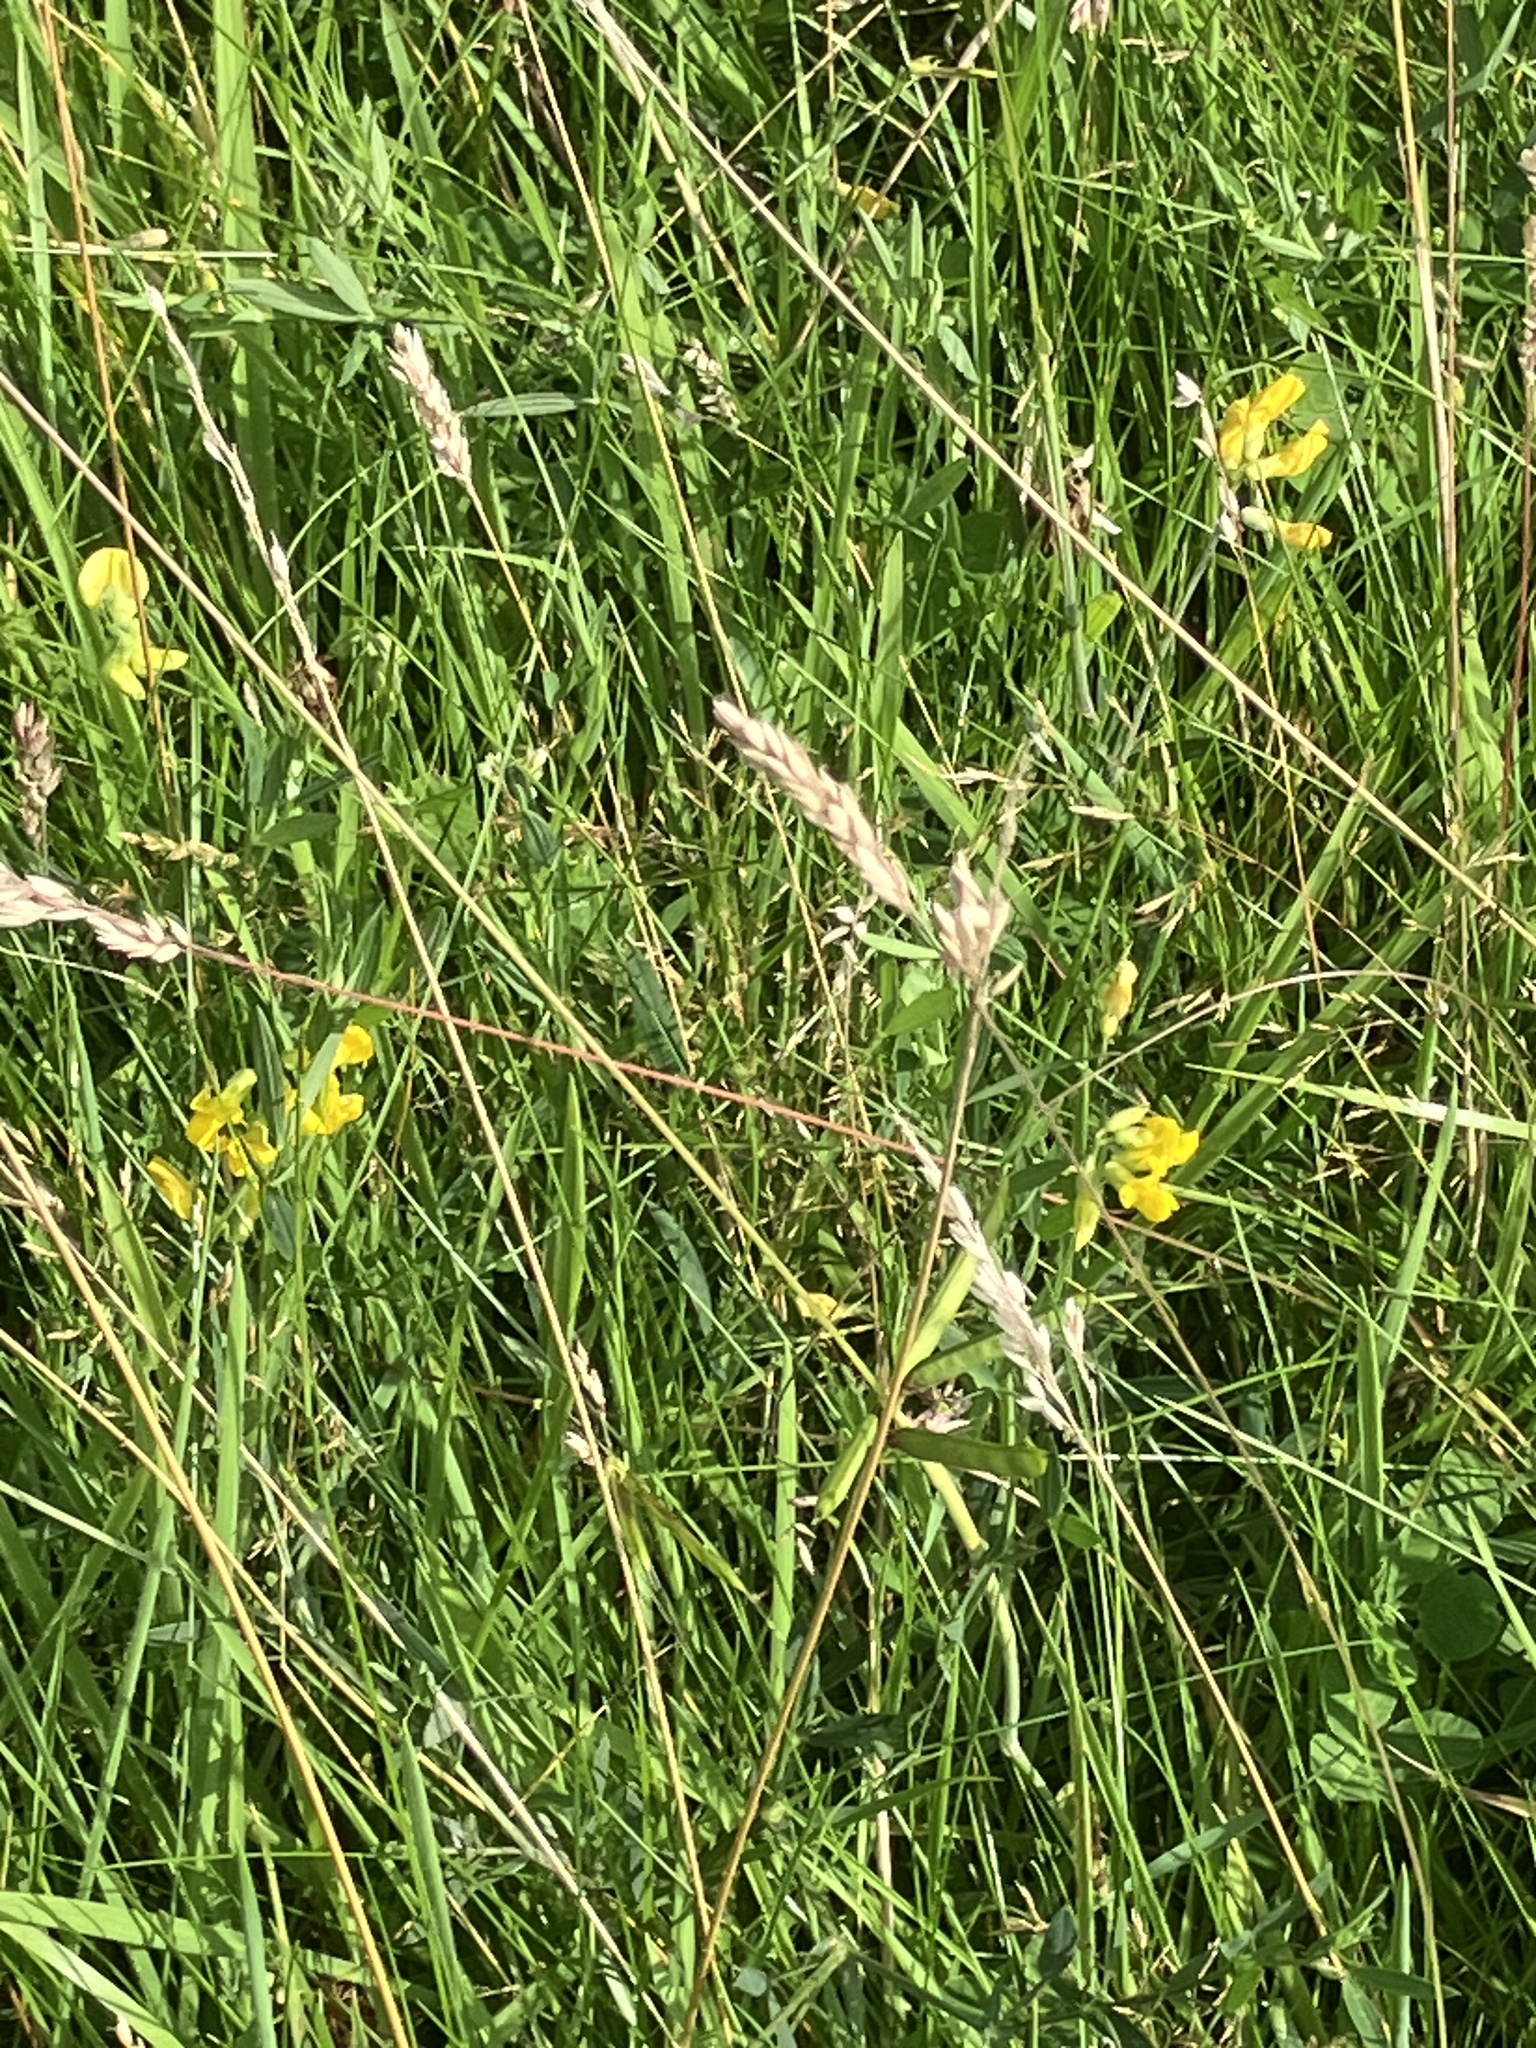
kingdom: Plantae
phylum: Tracheophyta
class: Magnoliopsida
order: Fabales
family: Fabaceae
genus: Lathyrus
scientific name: Lathyrus pratensis
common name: Meadow vetchling
